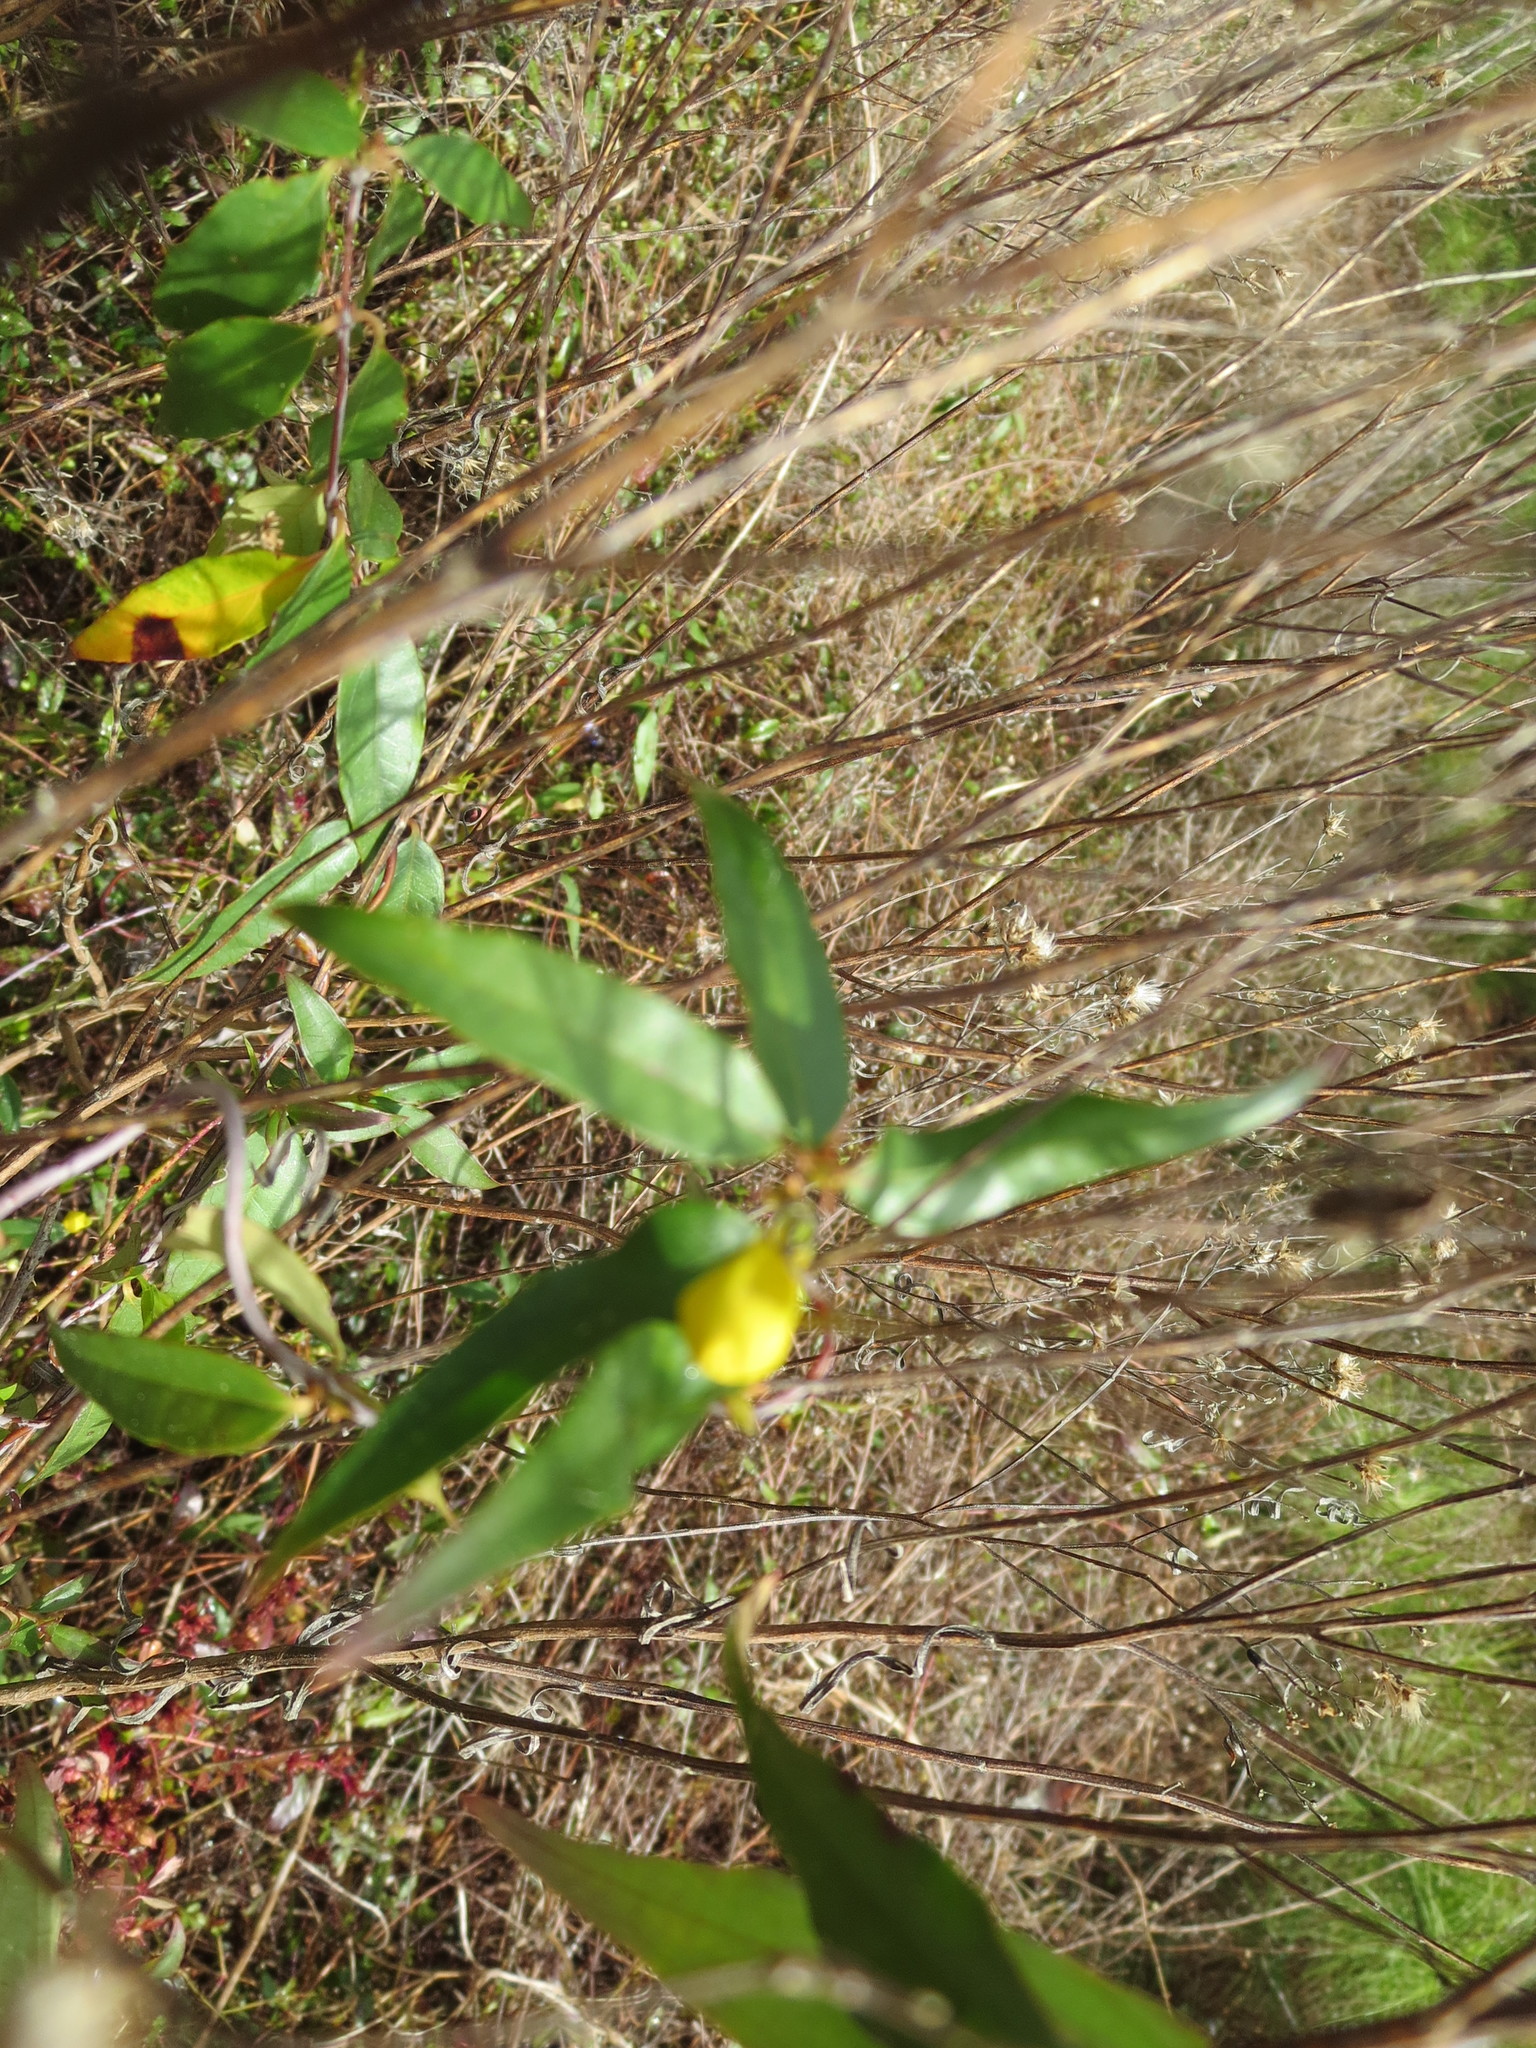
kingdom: Plantae
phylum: Tracheophyta
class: Magnoliopsida
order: Gentianales
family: Gelsemiaceae
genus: Gelsemium
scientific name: Gelsemium sempervirens
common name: Carolina-jasmine
